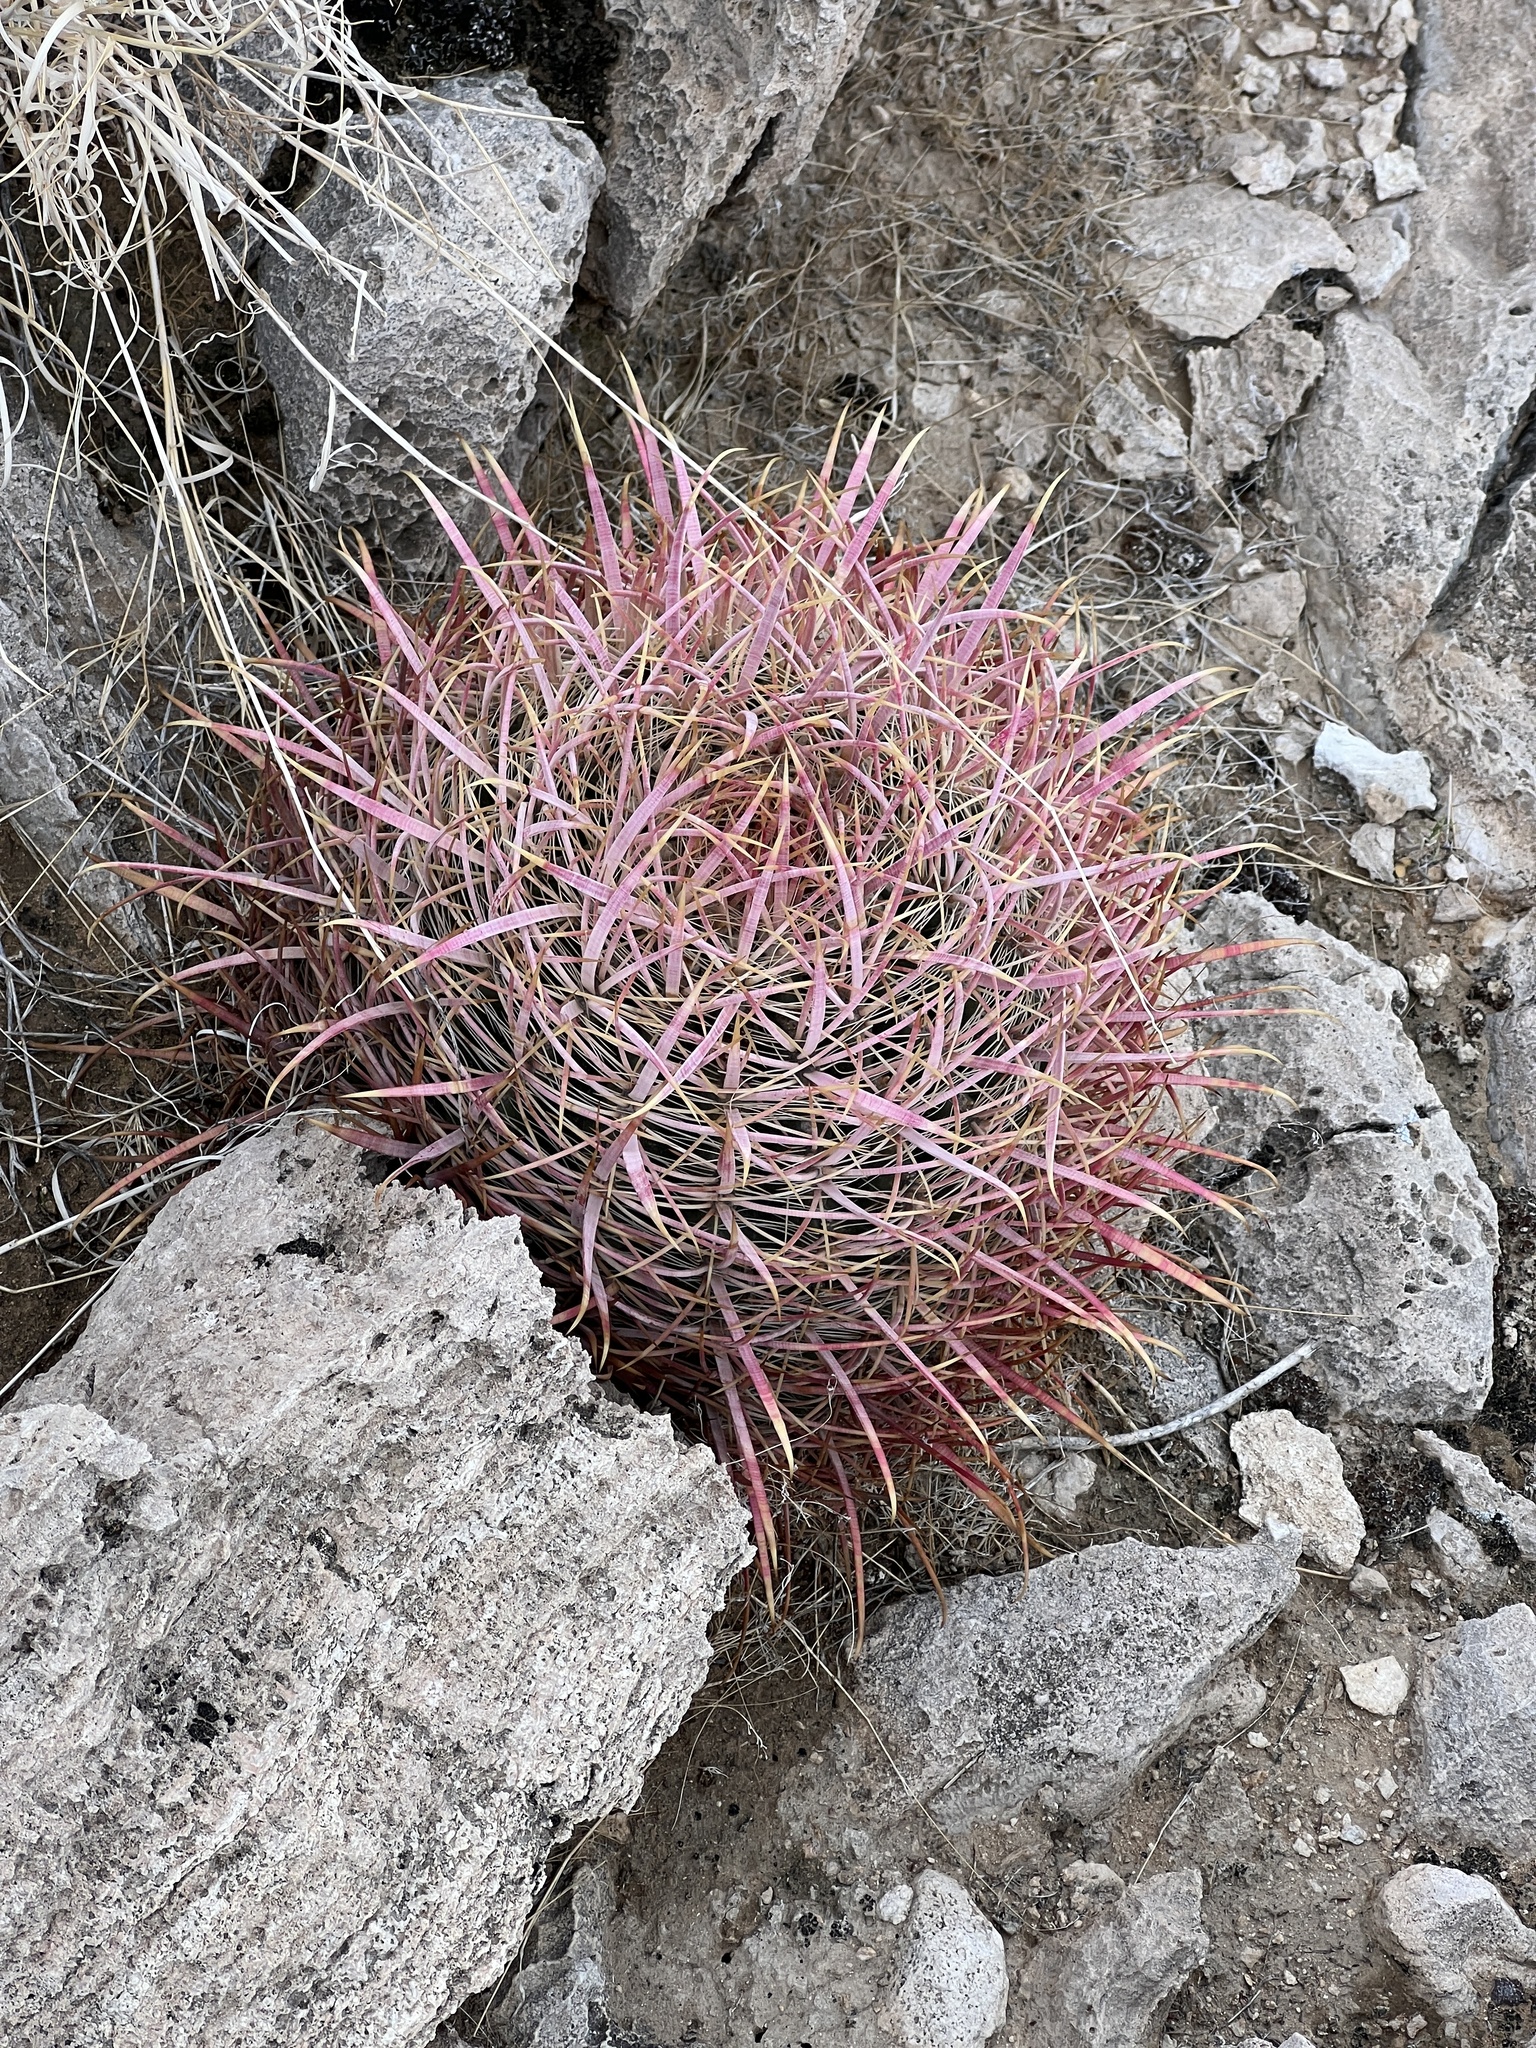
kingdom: Plantae
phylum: Tracheophyta
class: Magnoliopsida
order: Caryophyllales
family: Cactaceae
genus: Ferocactus
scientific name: Ferocactus cylindraceus
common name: California barrel cactus
